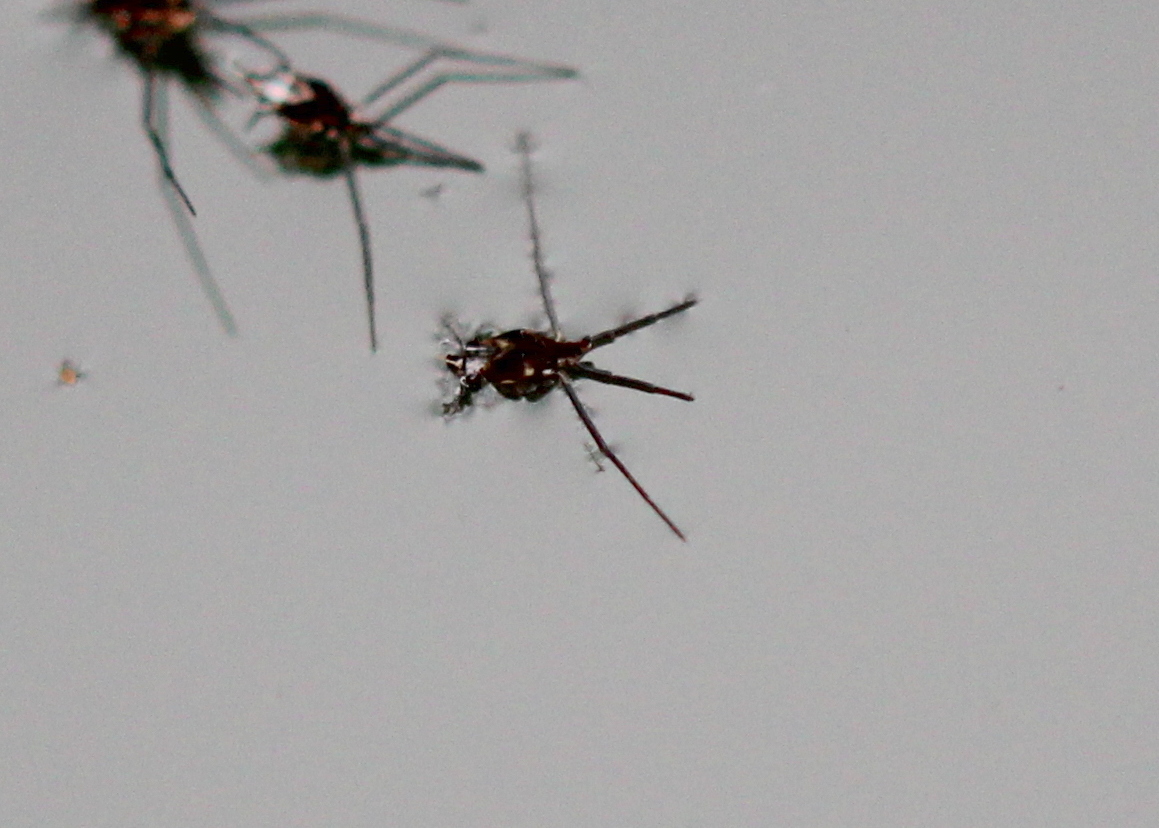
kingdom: Animalia
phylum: Arthropoda
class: Insecta
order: Hemiptera
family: Gerridae
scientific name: Gerridae
